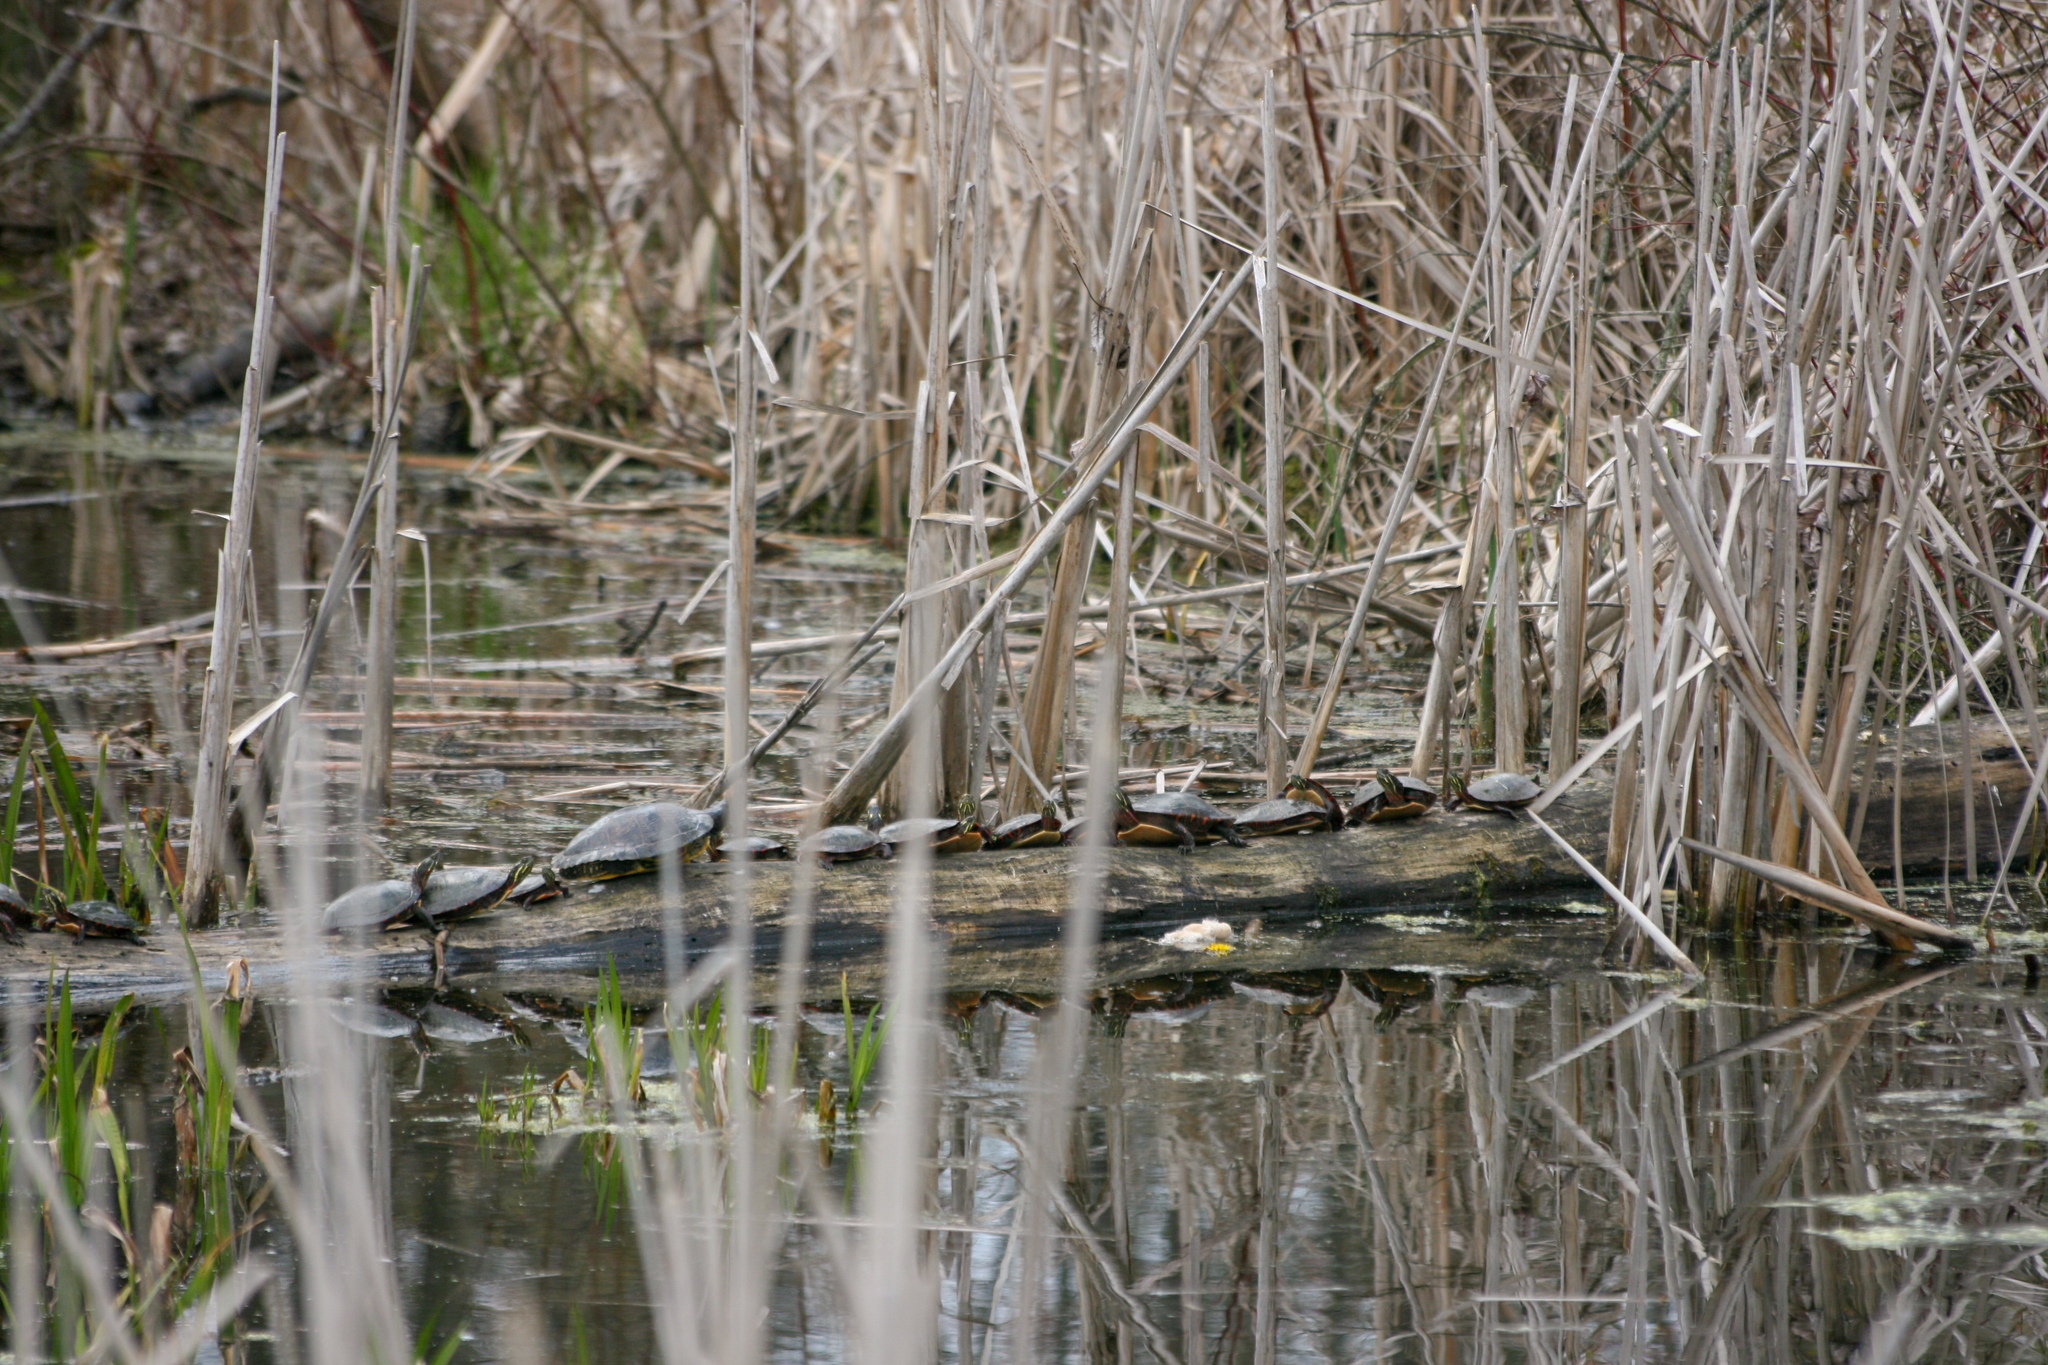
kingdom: Animalia
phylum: Chordata
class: Testudines
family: Emydidae
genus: Chrysemys
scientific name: Chrysemys picta
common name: Painted turtle
